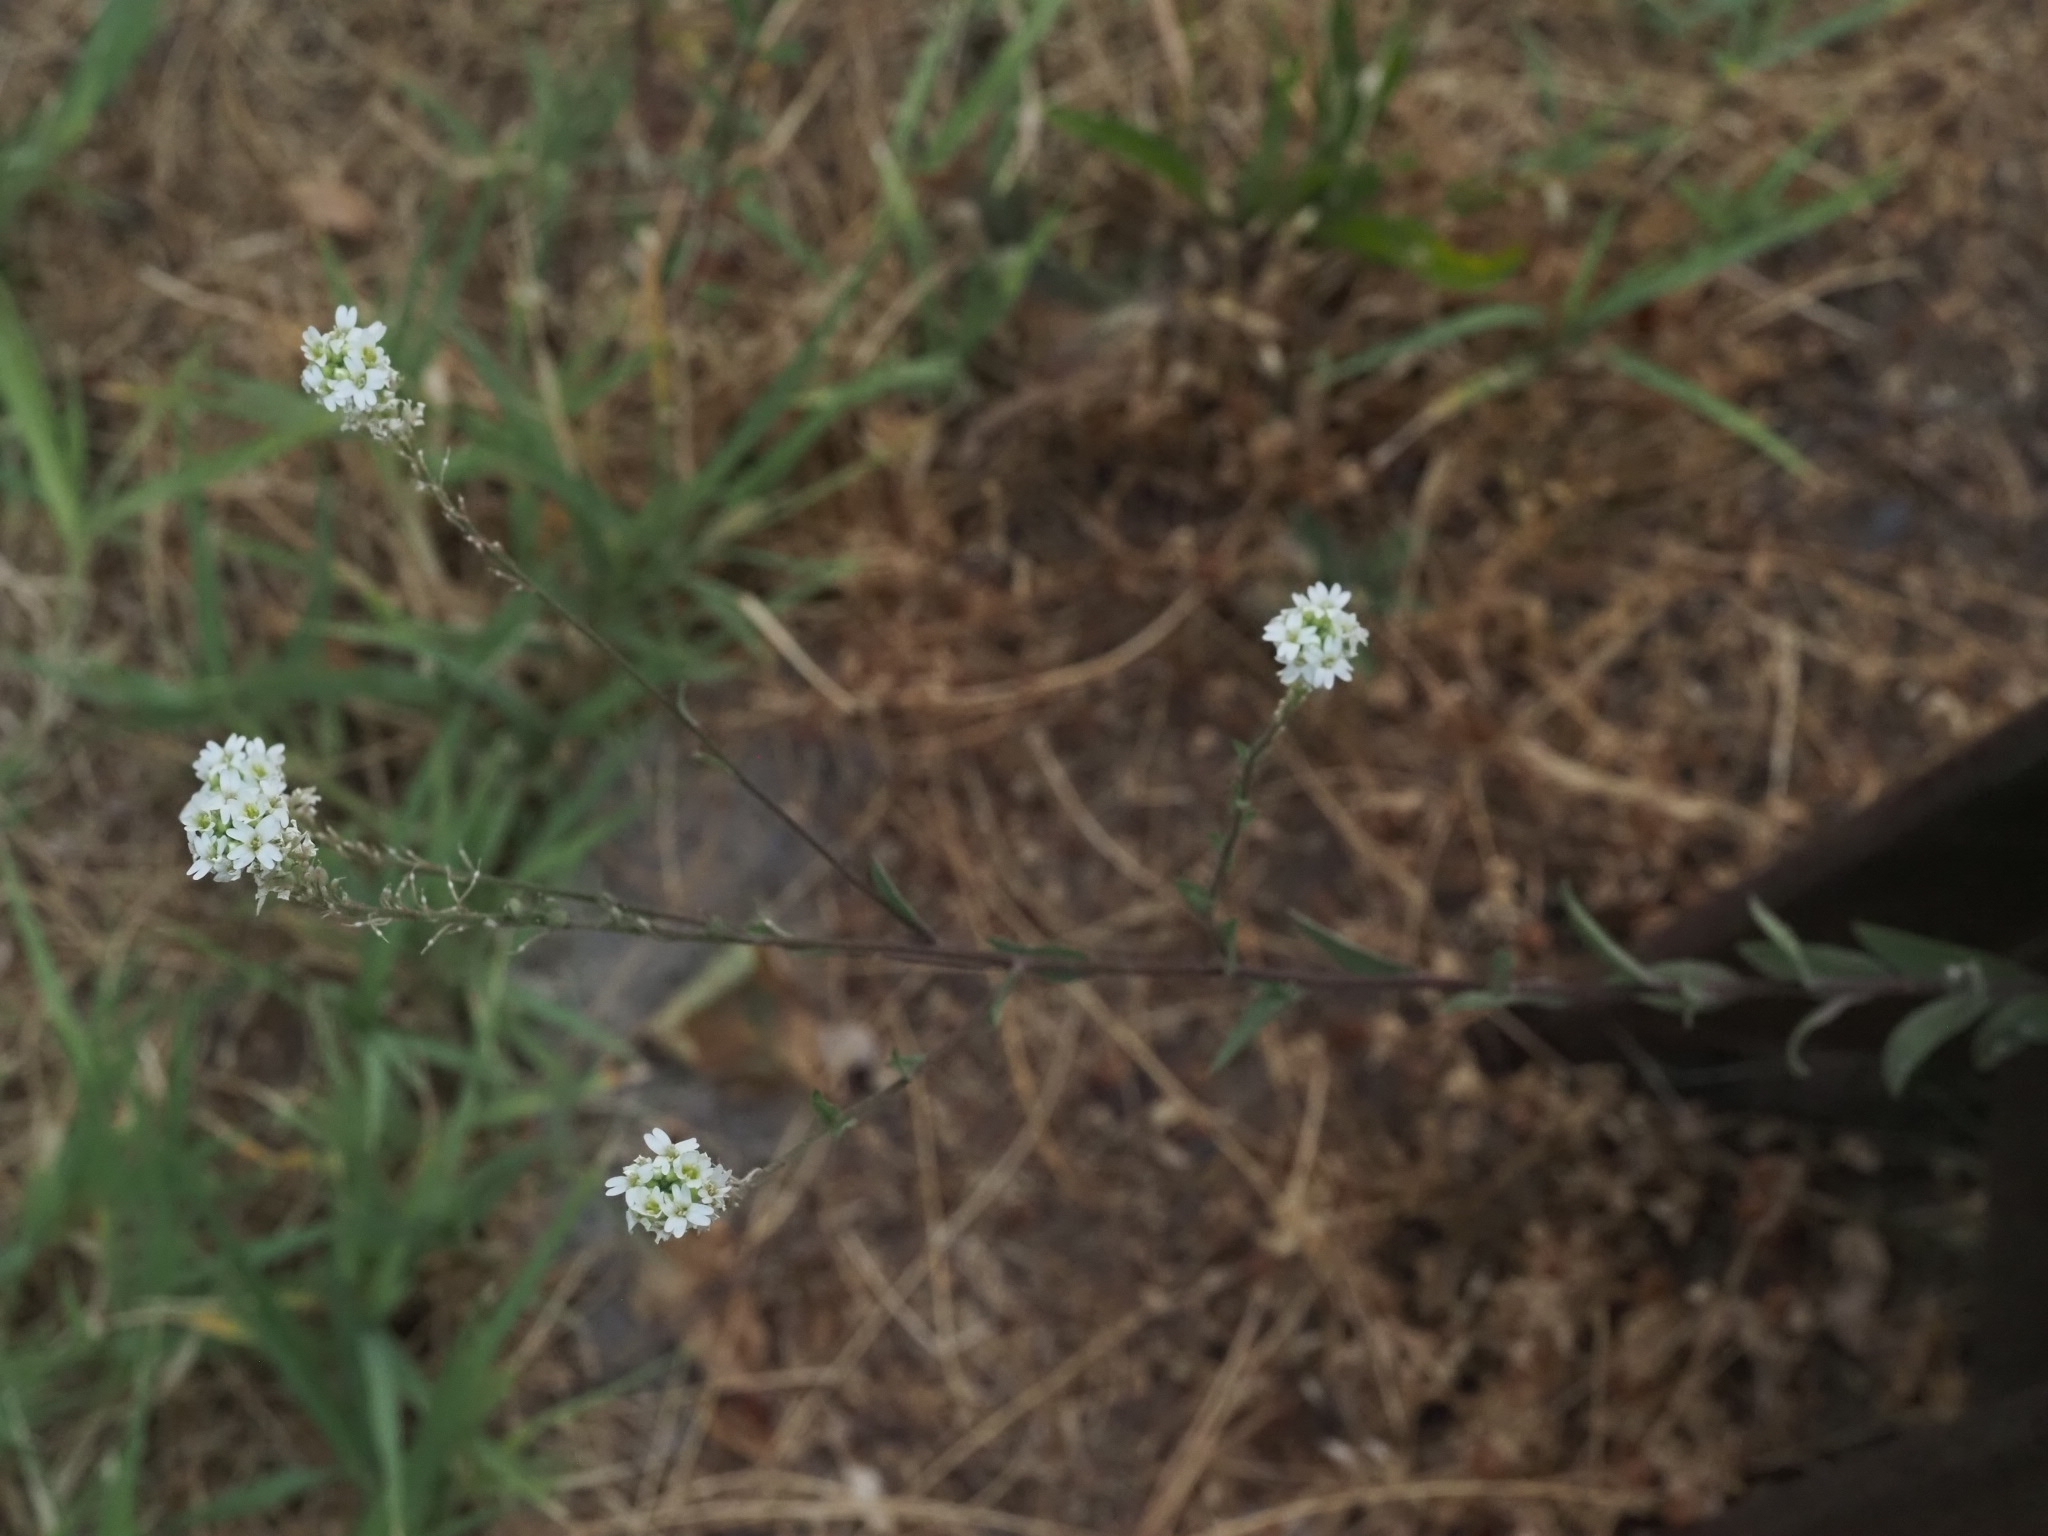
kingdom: Plantae
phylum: Tracheophyta
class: Magnoliopsida
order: Brassicales
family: Brassicaceae
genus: Berteroa
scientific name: Berteroa incana
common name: Hoary alison
